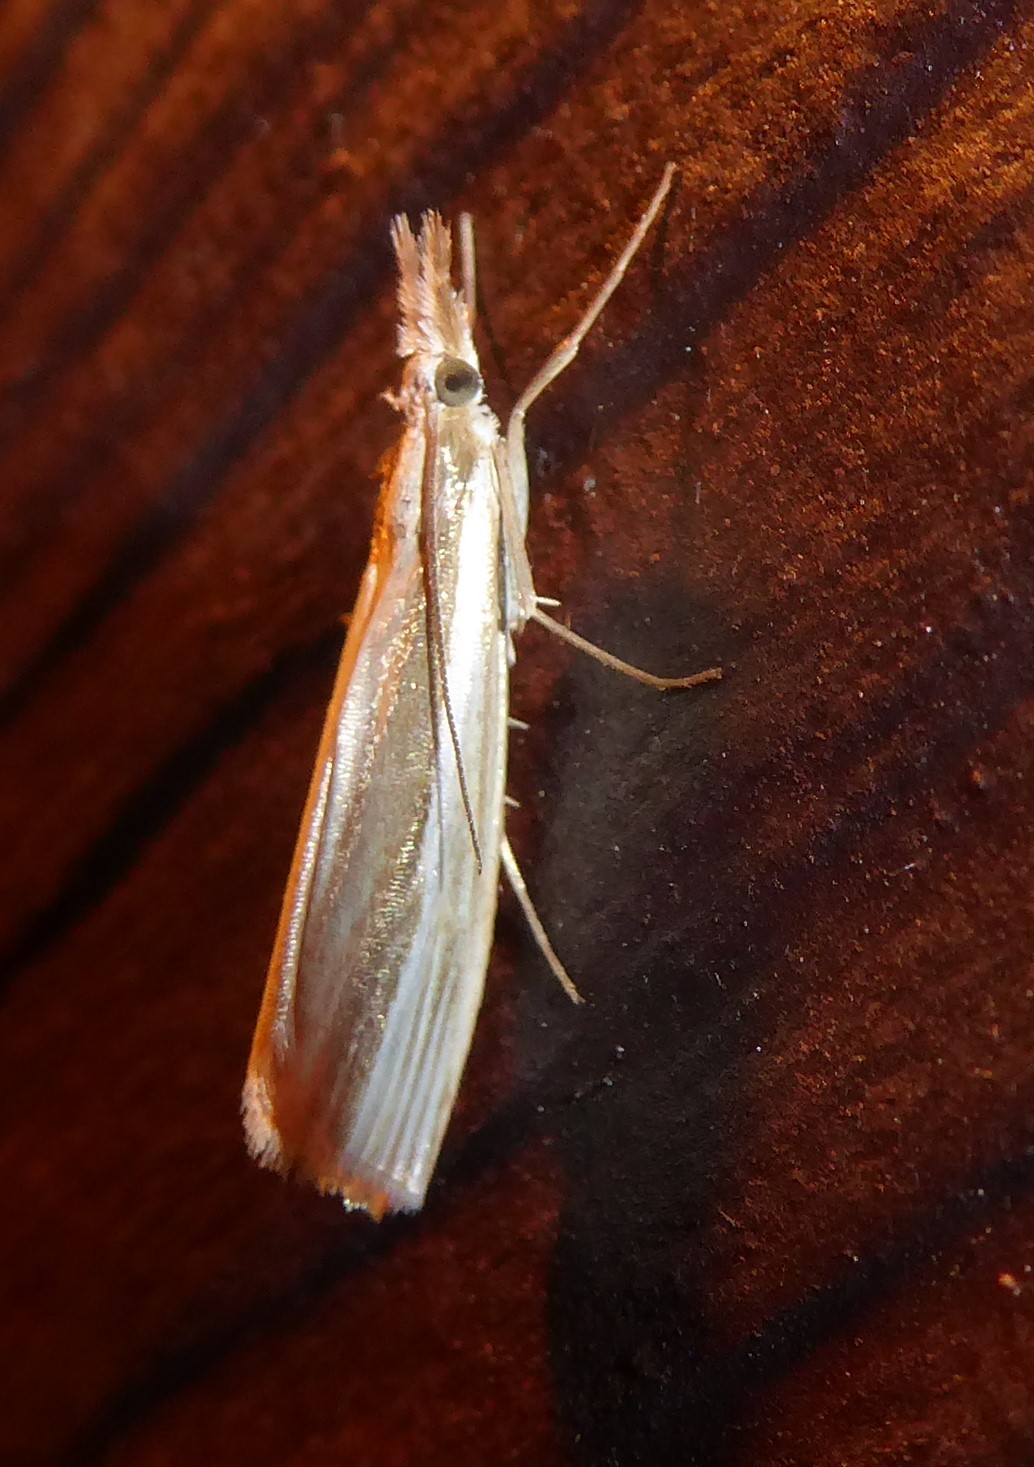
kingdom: Animalia
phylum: Arthropoda
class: Insecta
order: Lepidoptera
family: Crambidae
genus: Orocrambus
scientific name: Orocrambus ramosellus
